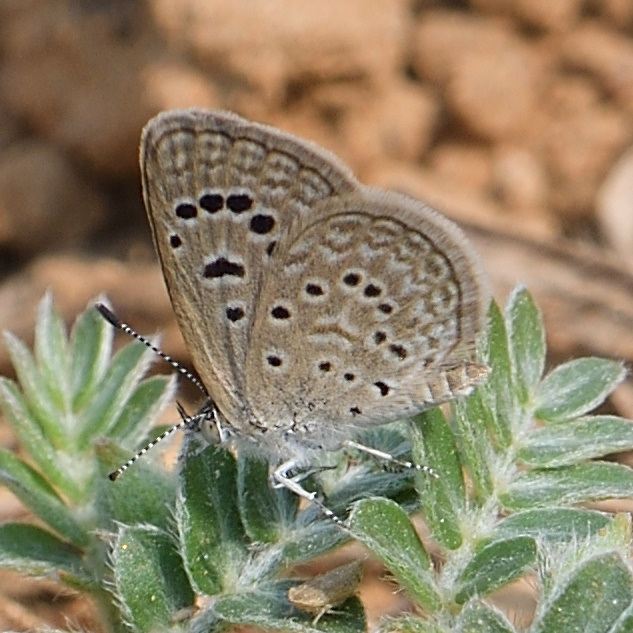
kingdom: Animalia
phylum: Arthropoda
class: Insecta
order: Lepidoptera
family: Lycaenidae
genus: Zizeeria
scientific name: Zizeeria karsandra
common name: Dark grass blue
